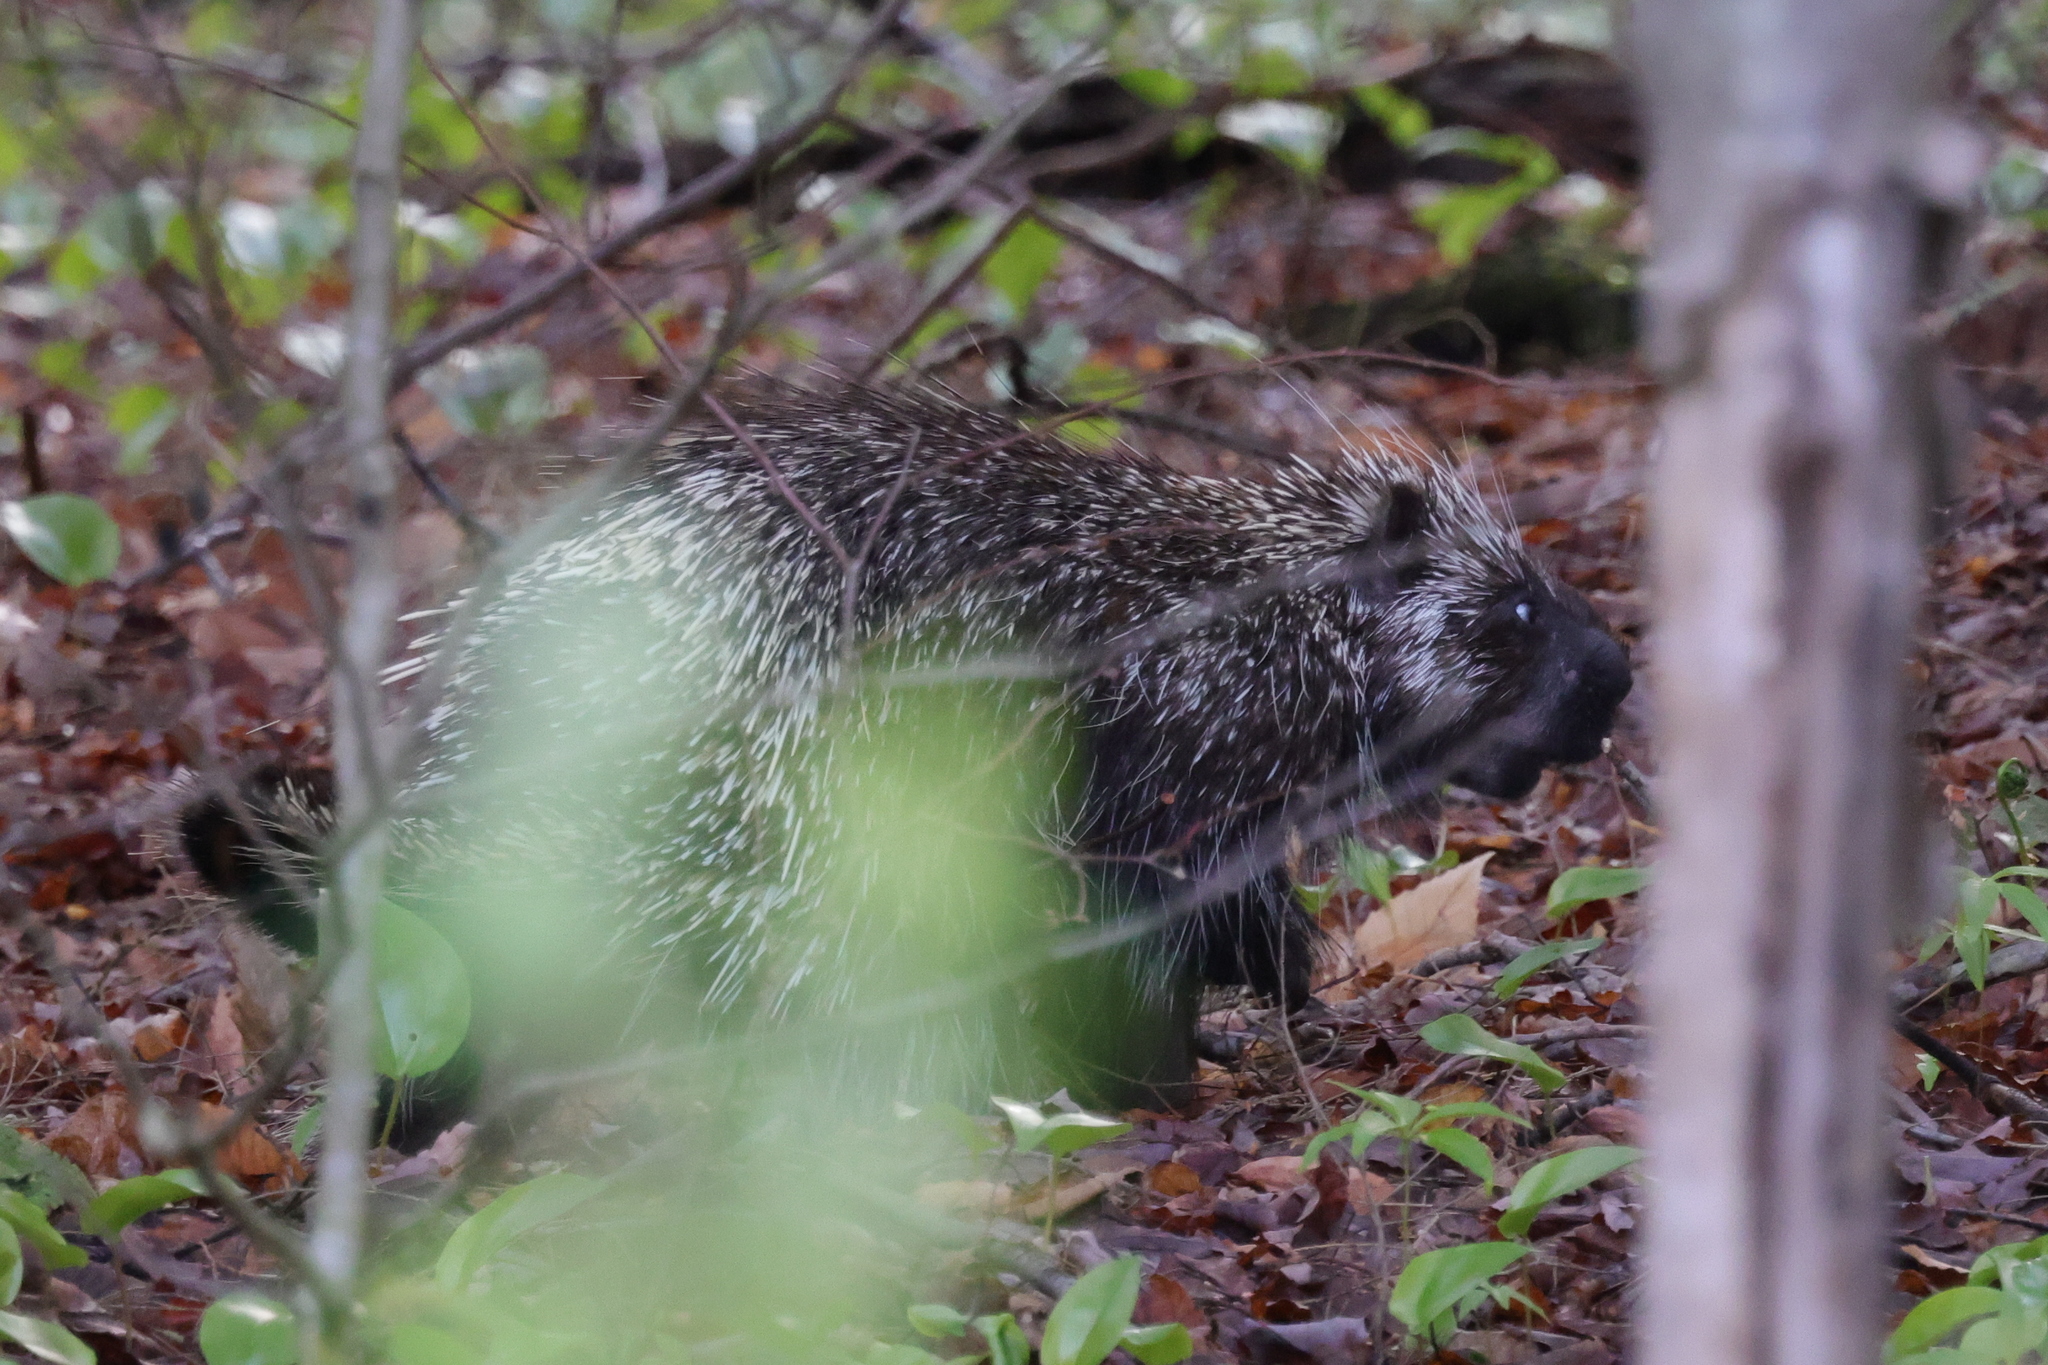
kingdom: Animalia
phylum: Chordata
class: Mammalia
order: Rodentia
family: Erethizontidae
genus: Erethizon
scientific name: Erethizon dorsatus
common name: North american porcupine
